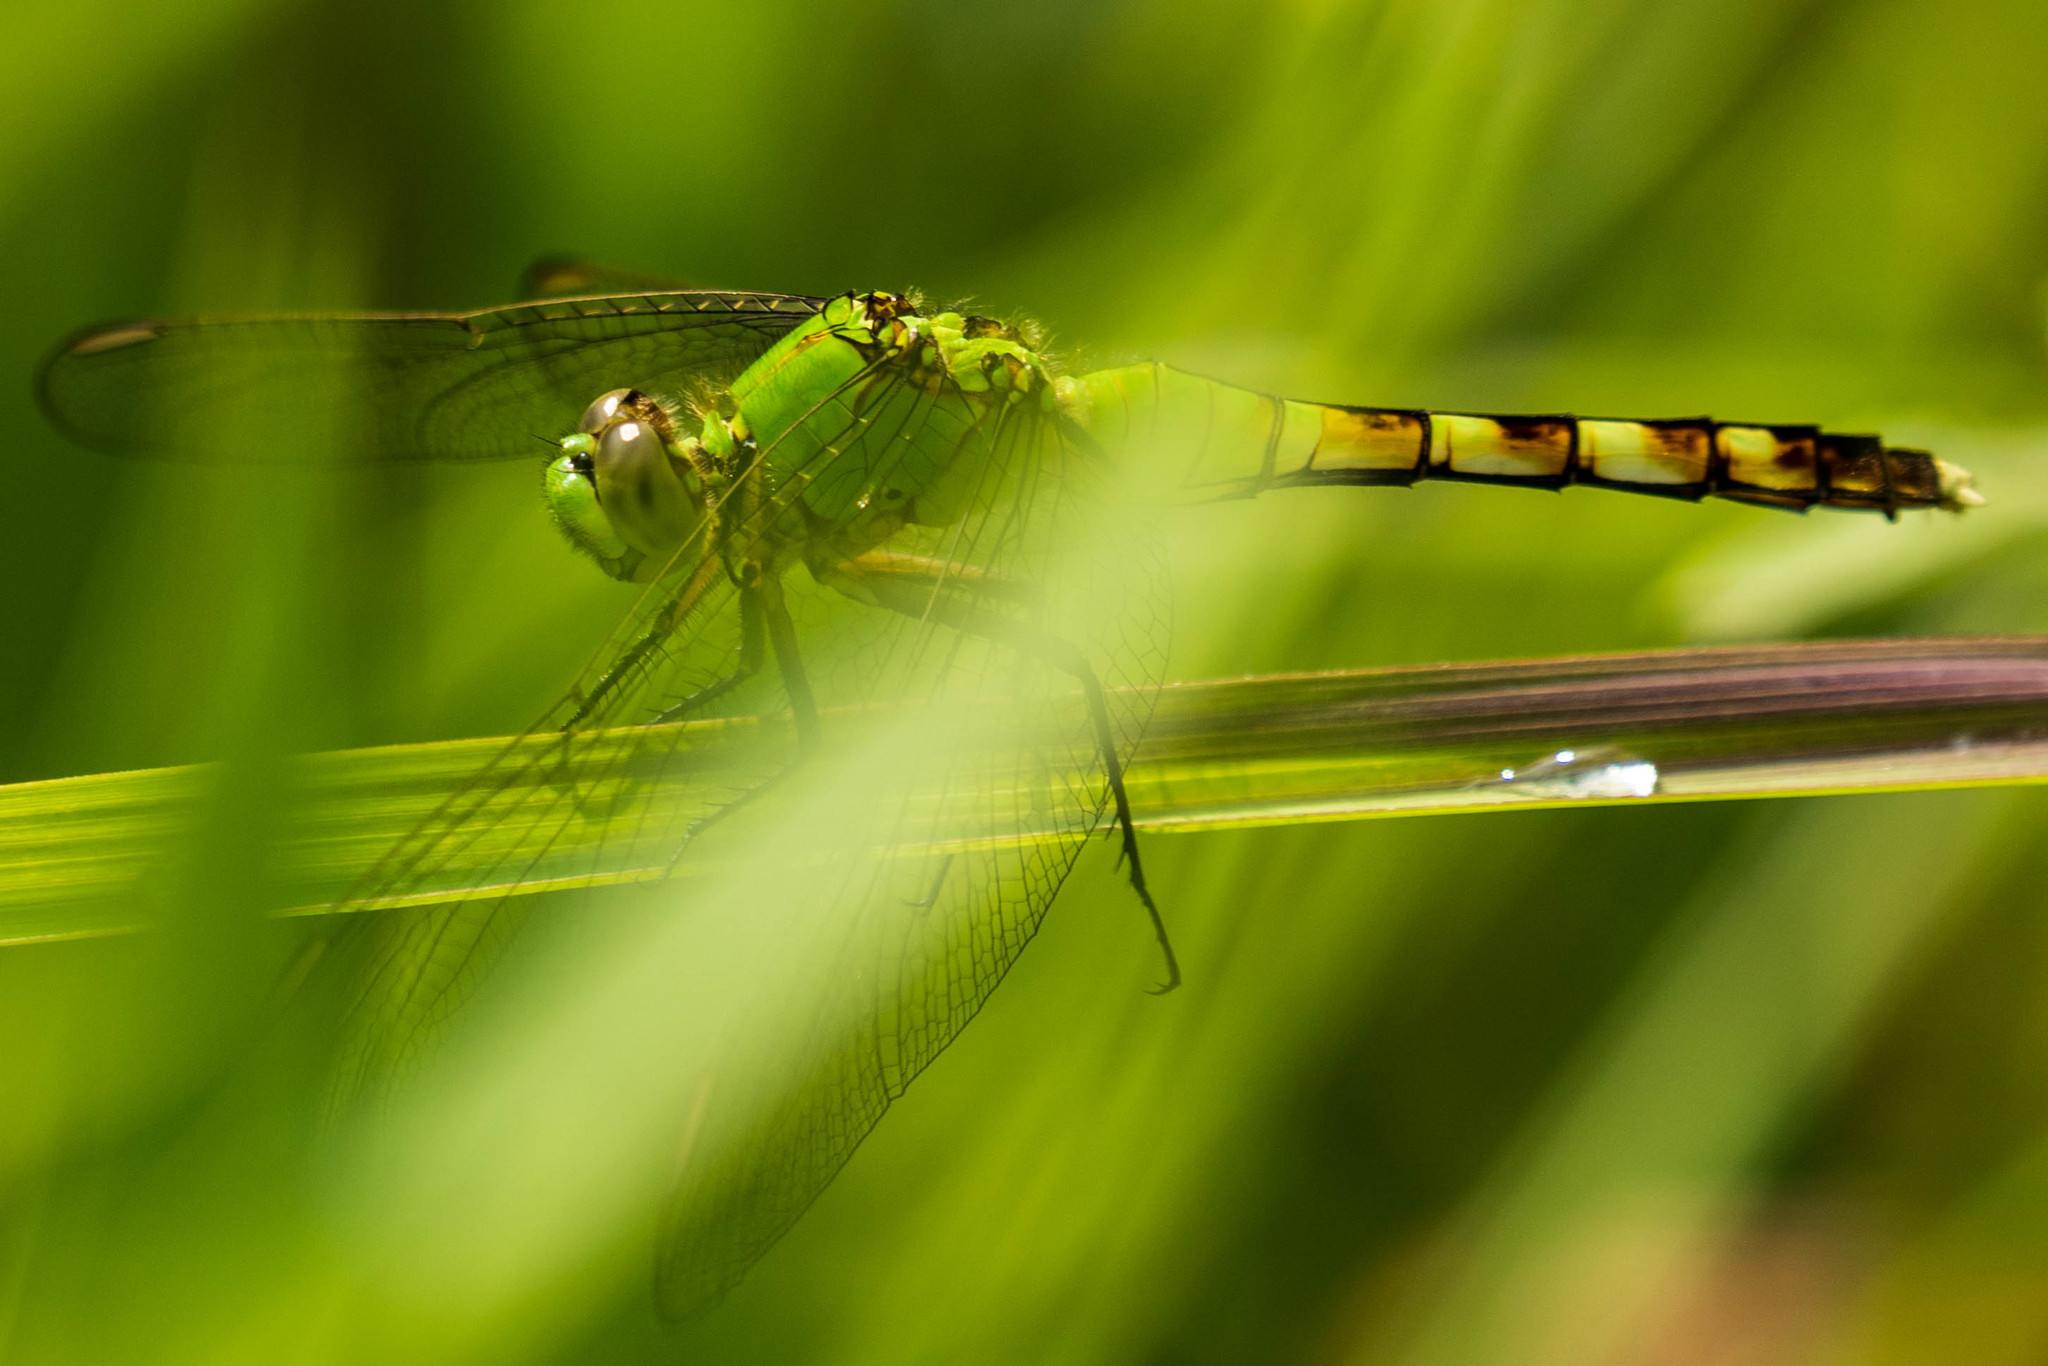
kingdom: Animalia
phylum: Arthropoda
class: Insecta
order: Odonata
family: Libellulidae
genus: Erythemis
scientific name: Erythemis simplicicollis
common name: Eastern pondhawk
